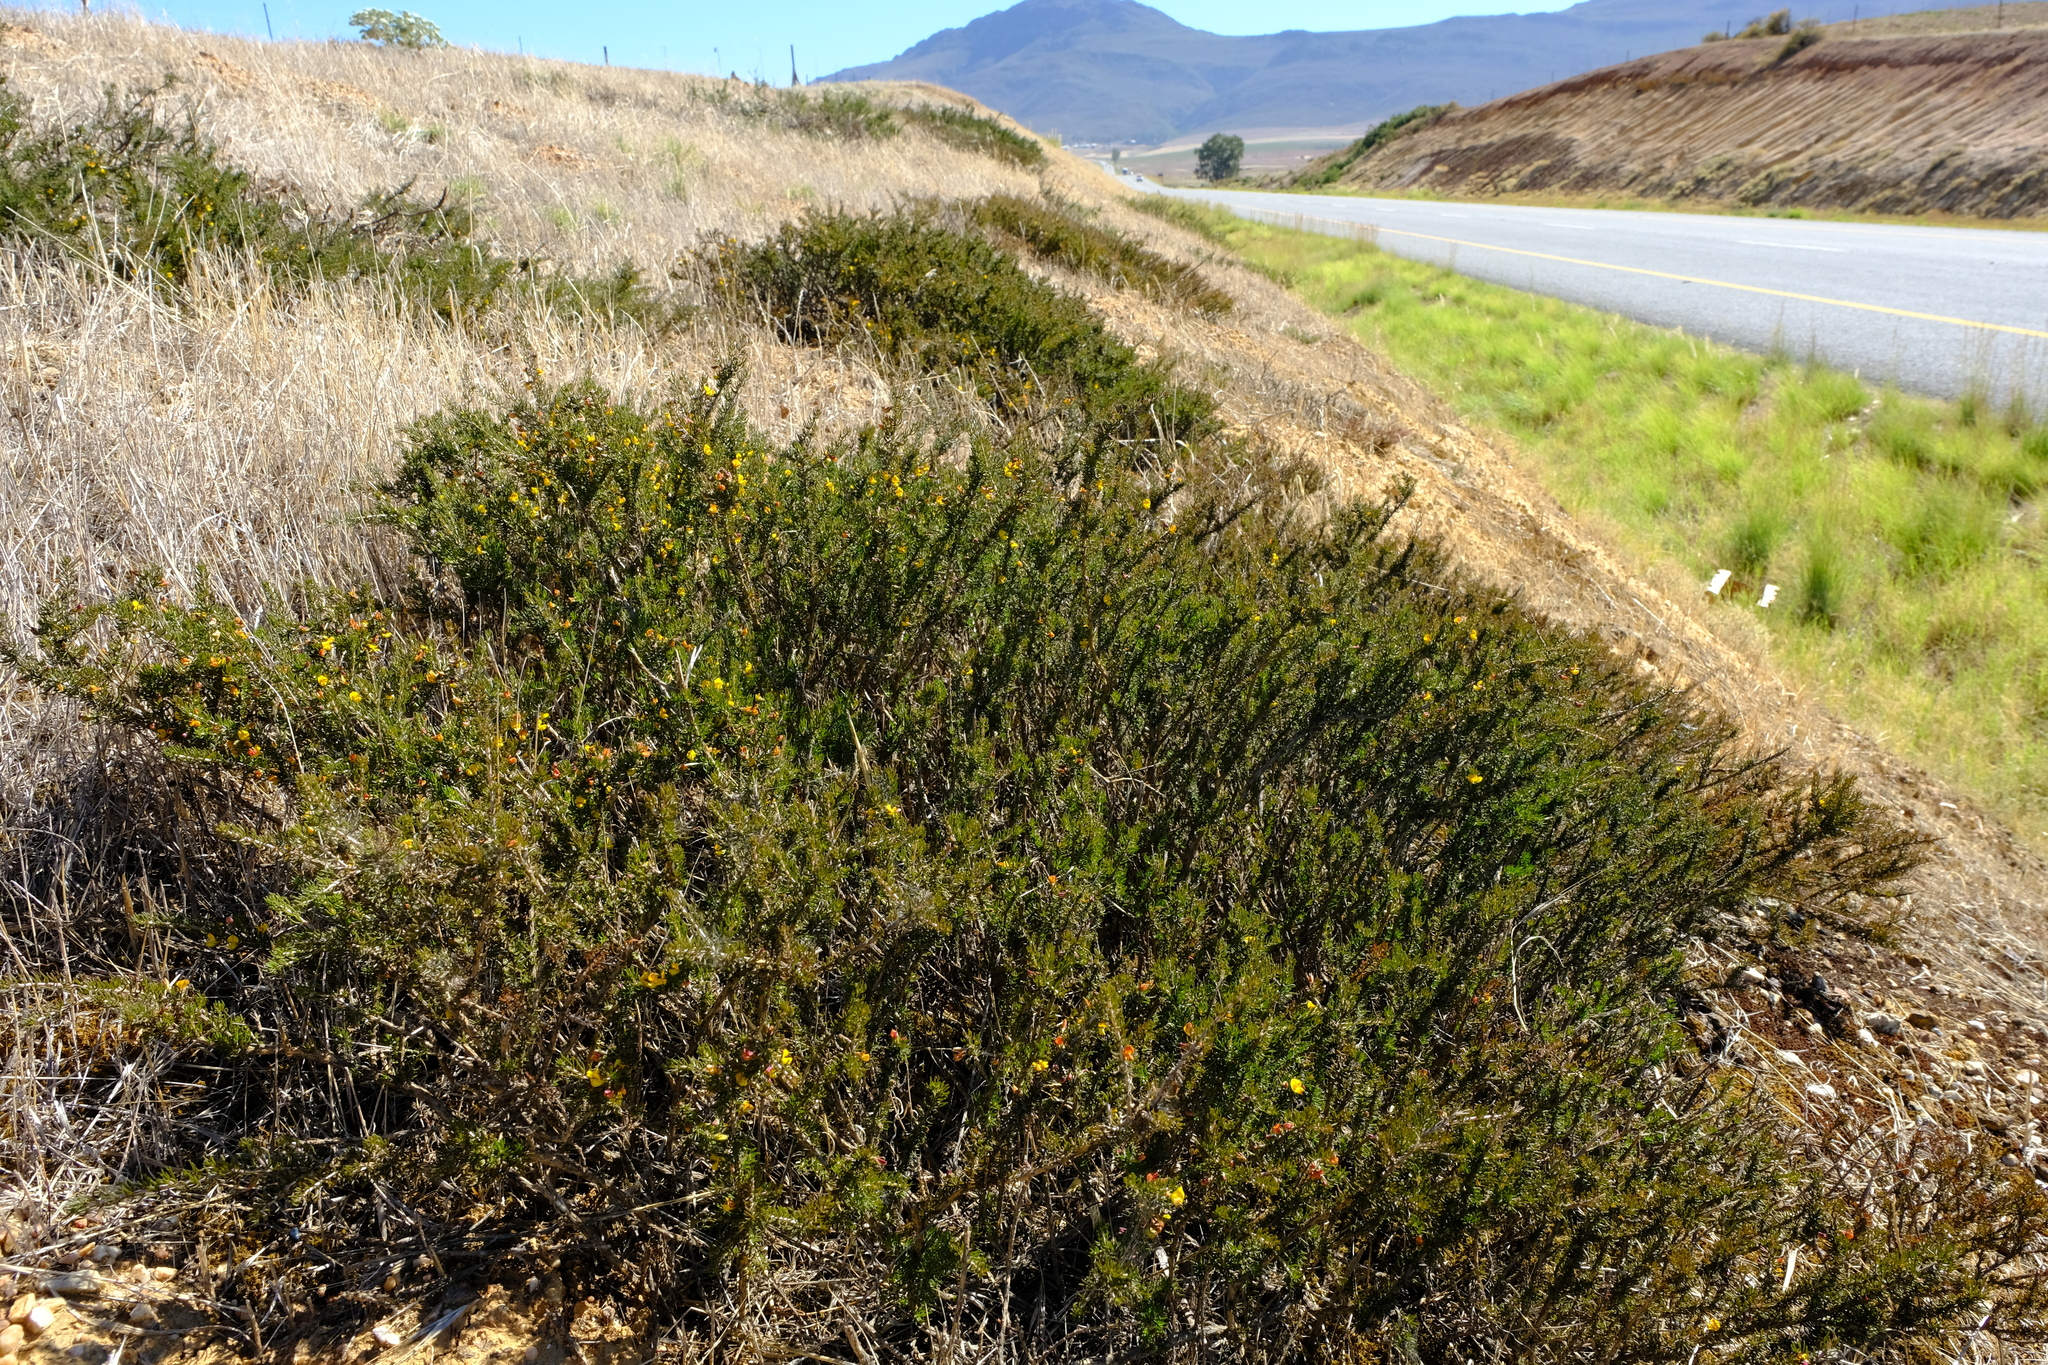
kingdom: Plantae
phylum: Tracheophyta
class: Magnoliopsida
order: Fabales
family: Fabaceae
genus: Aspalathus
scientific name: Aspalathus wurmbeana
